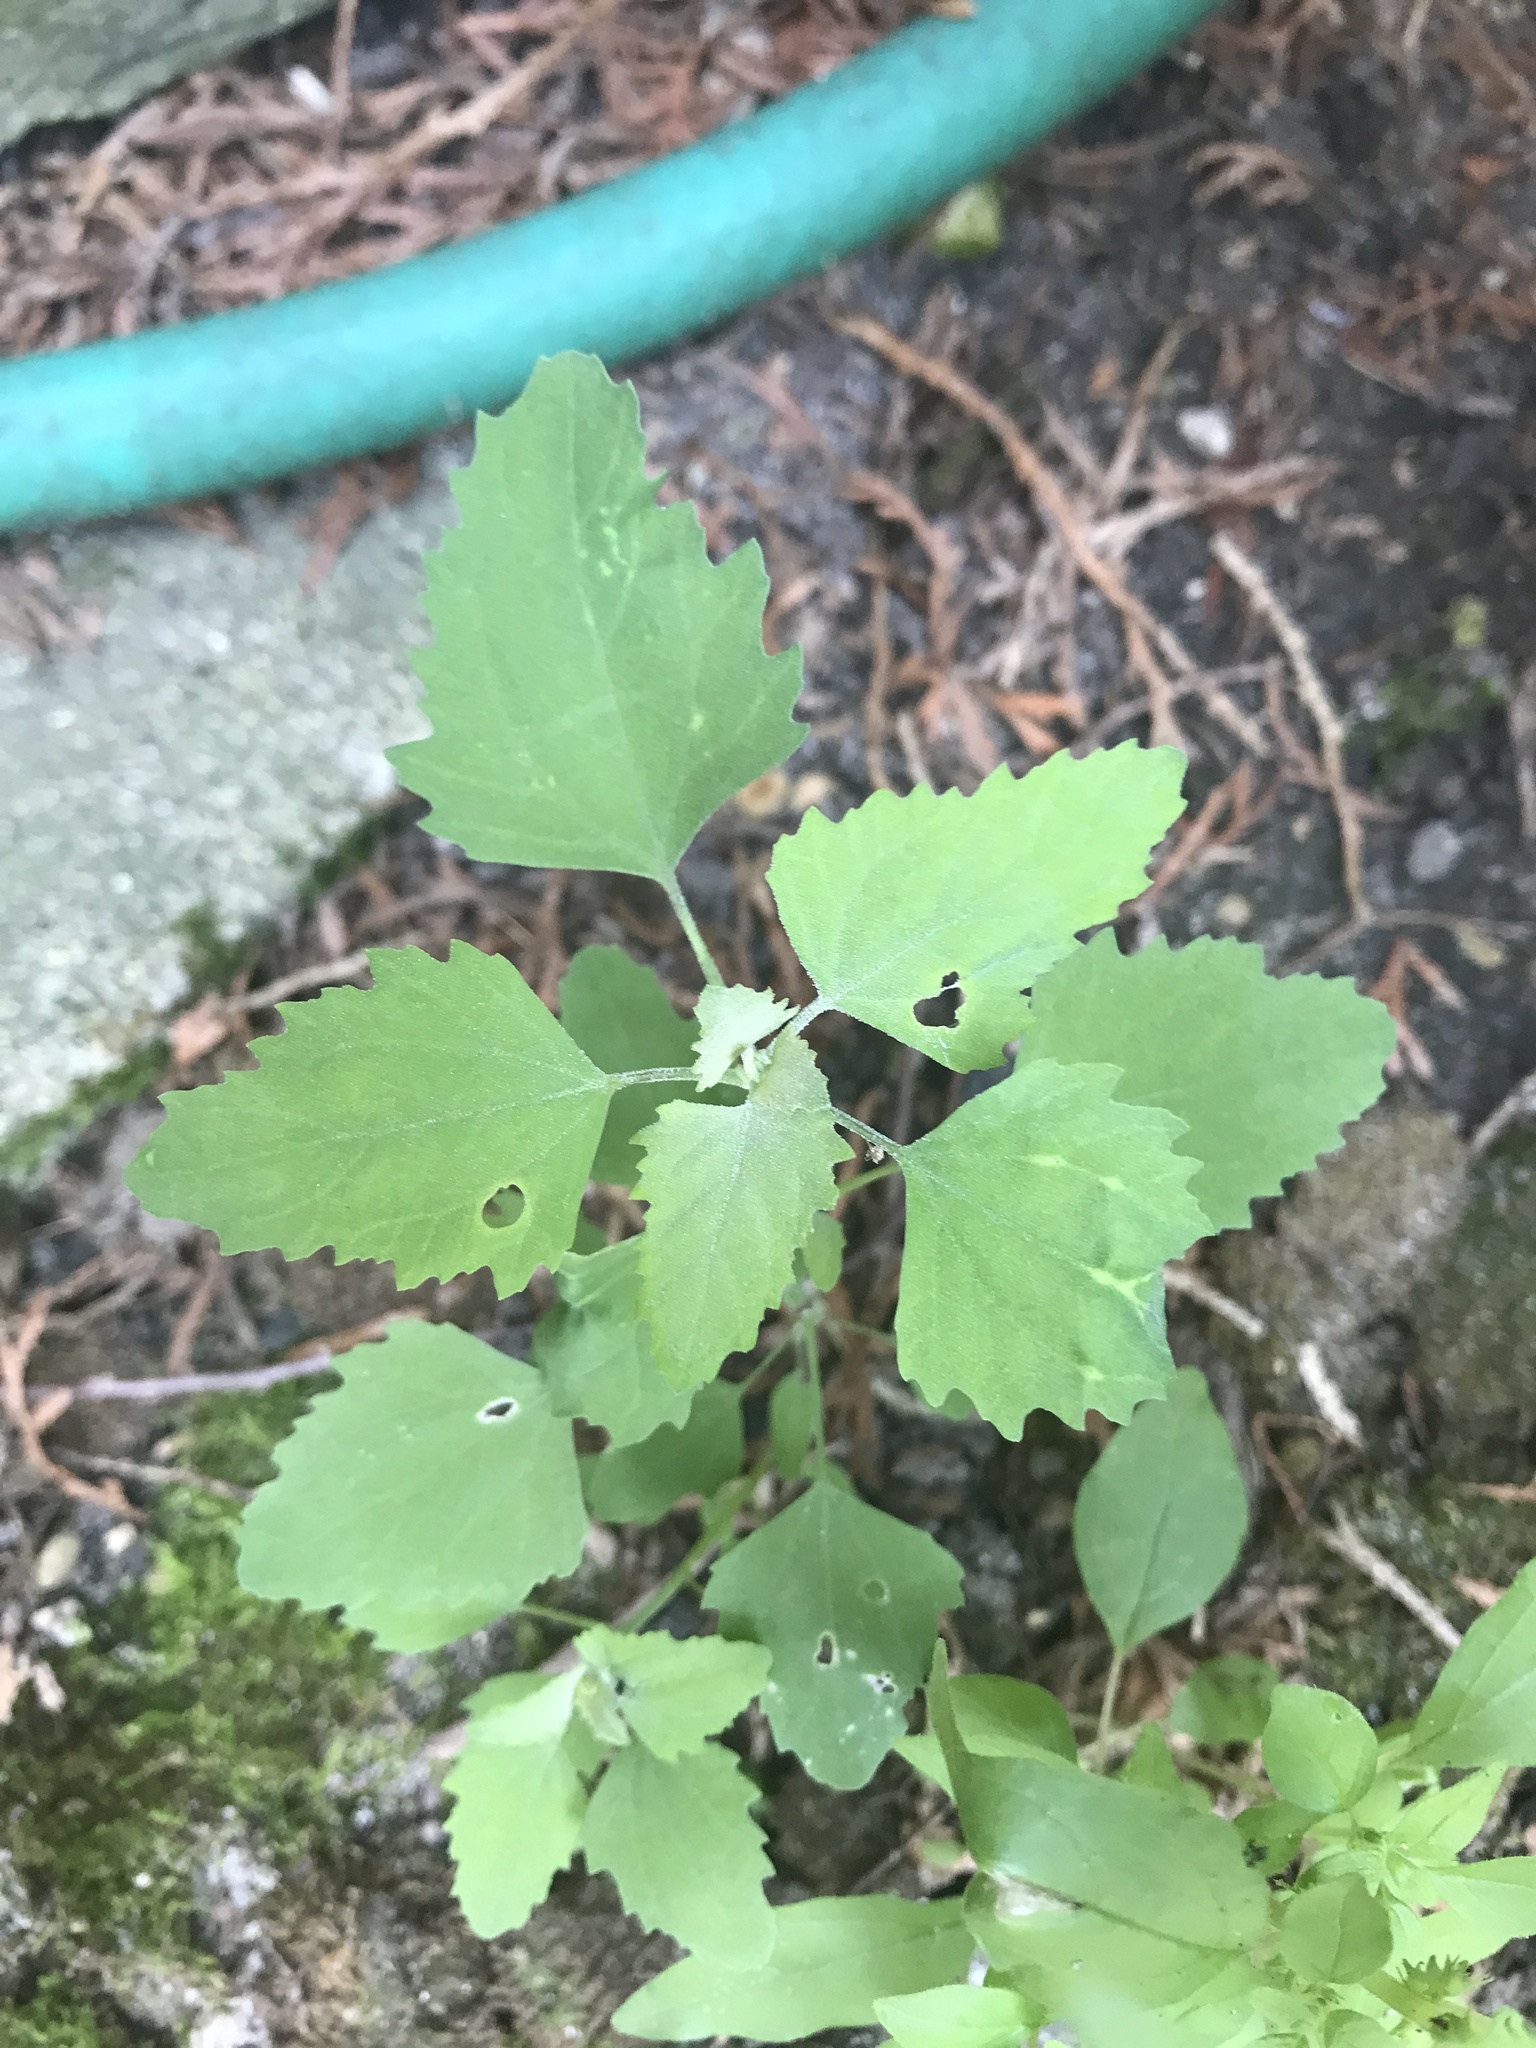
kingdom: Plantae
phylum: Tracheophyta
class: Magnoliopsida
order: Caryophyllales
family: Amaranthaceae
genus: Chenopodium
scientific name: Chenopodium album
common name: Fat-hen
